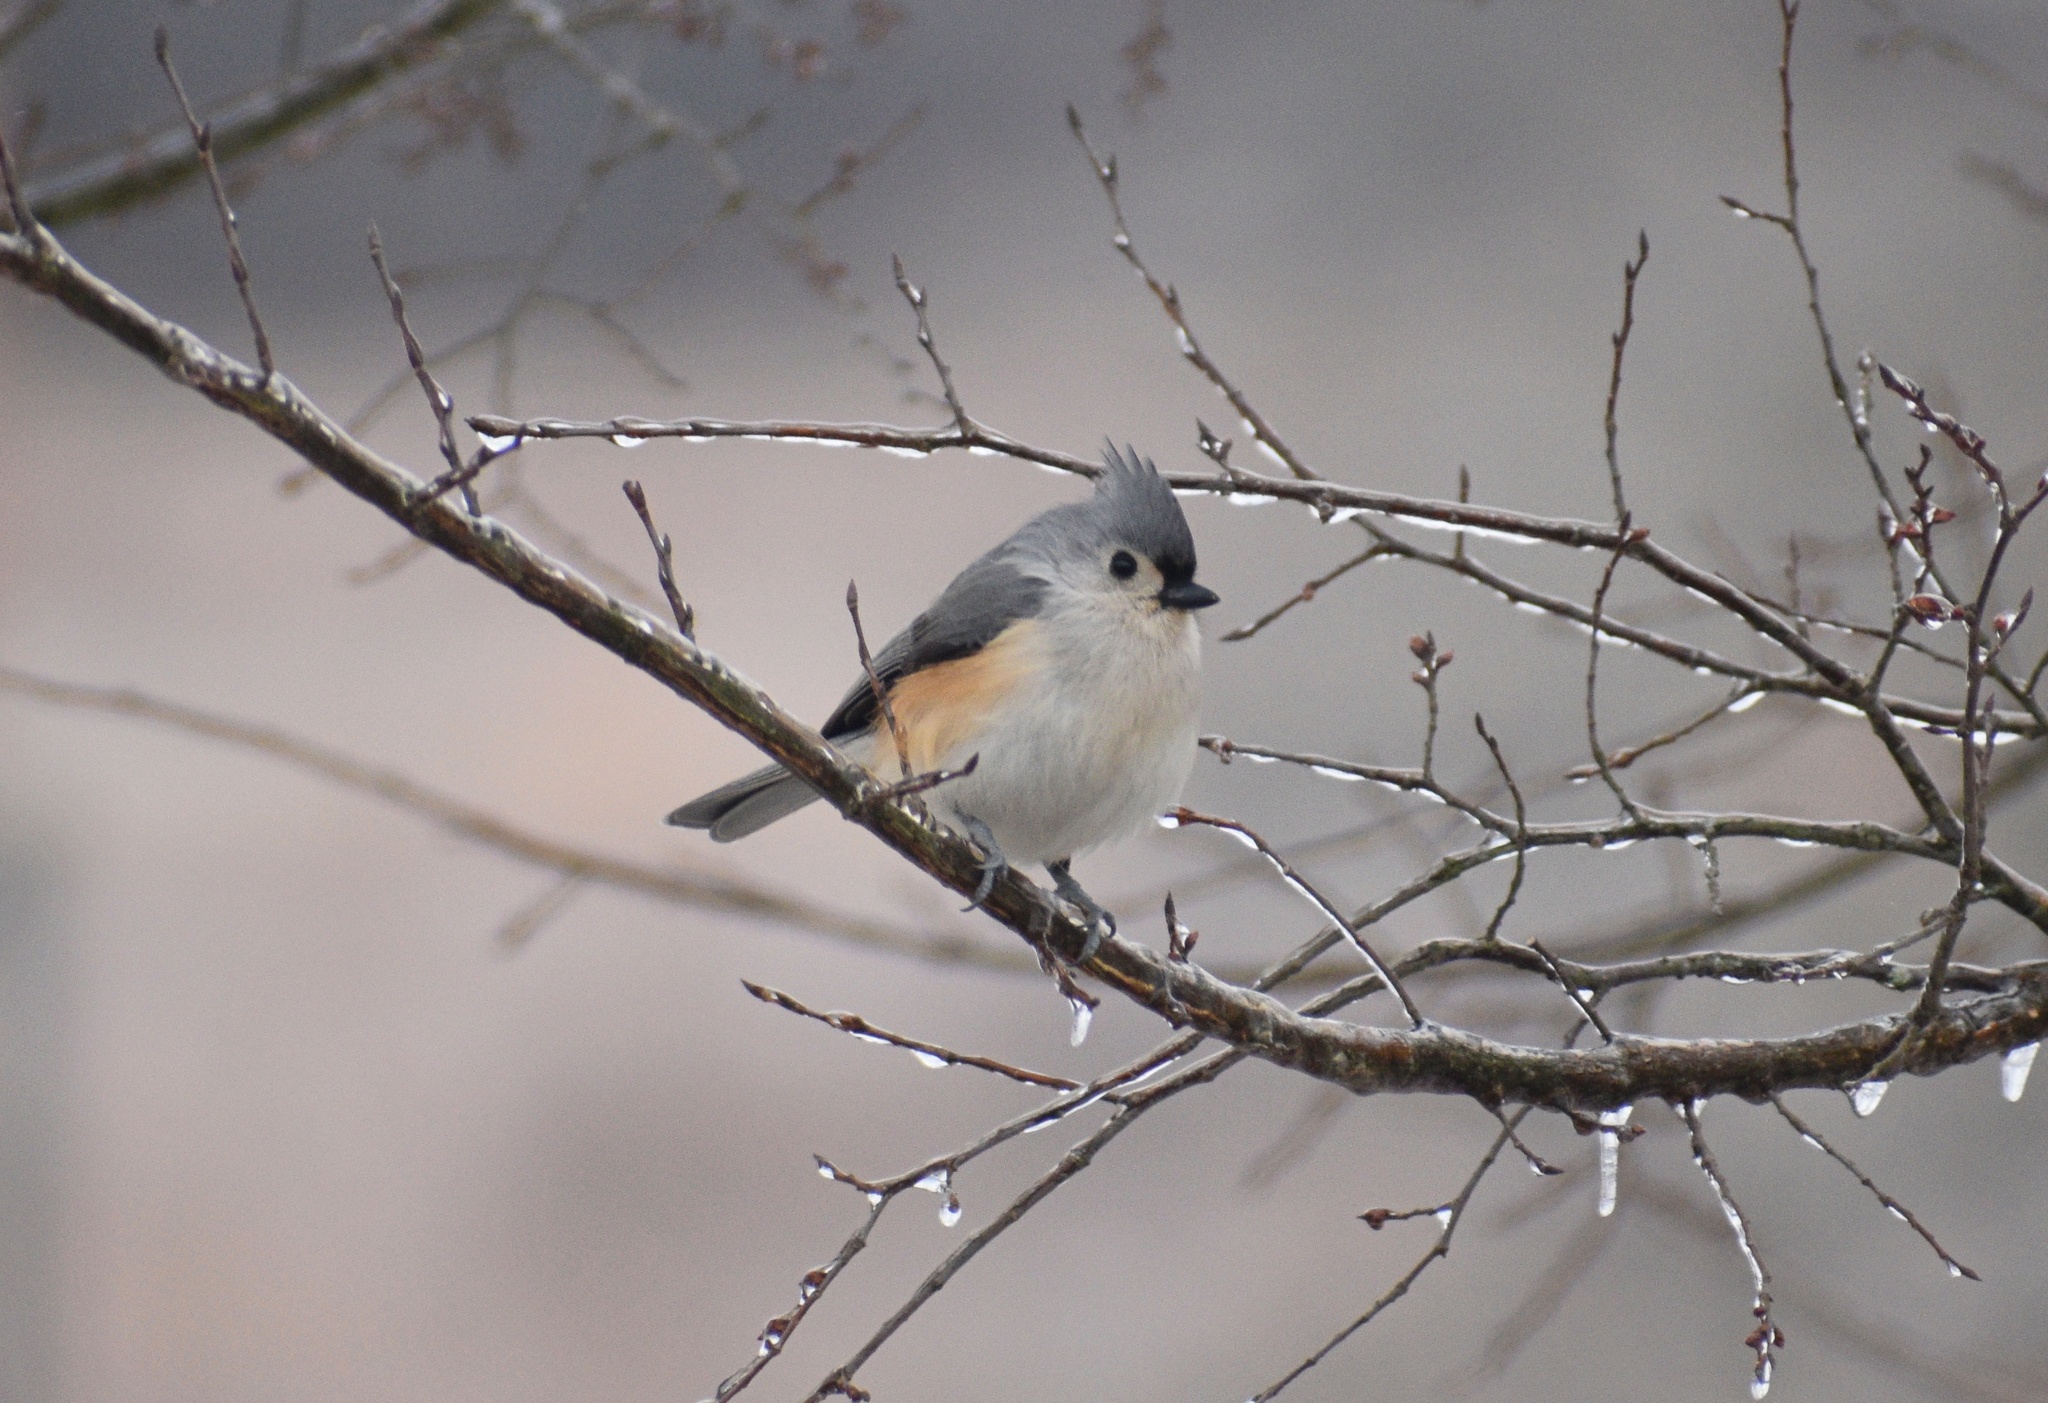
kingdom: Animalia
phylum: Chordata
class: Aves
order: Passeriformes
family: Paridae
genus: Baeolophus
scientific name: Baeolophus bicolor
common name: Tufted titmouse
